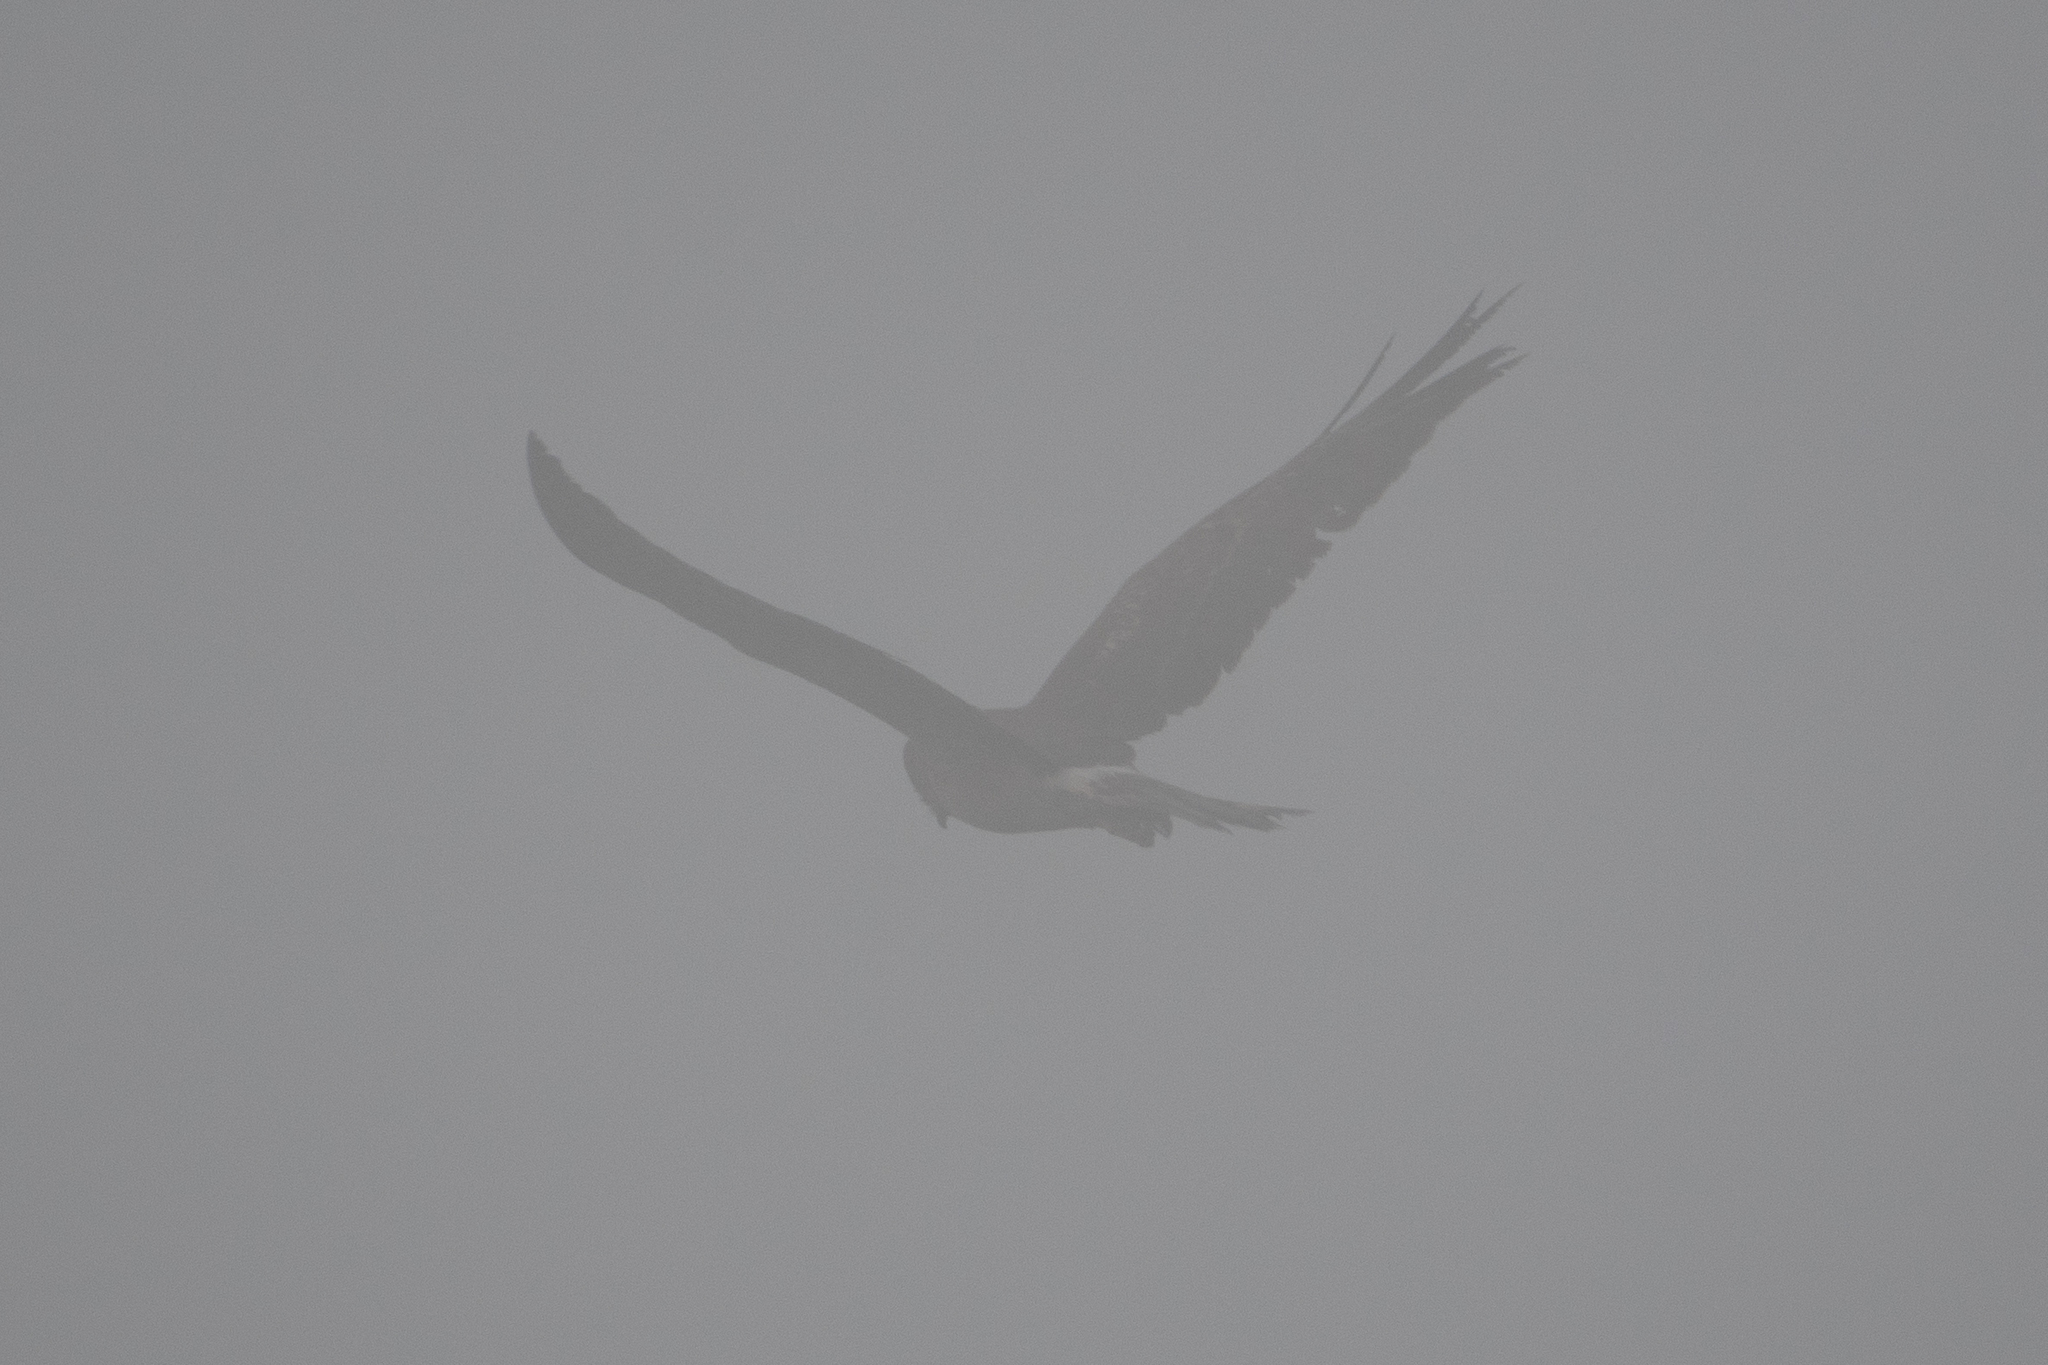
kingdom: Animalia
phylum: Chordata
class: Aves
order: Accipitriformes
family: Accipitridae
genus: Circus
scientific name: Circus cyaneus
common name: Hen harrier
